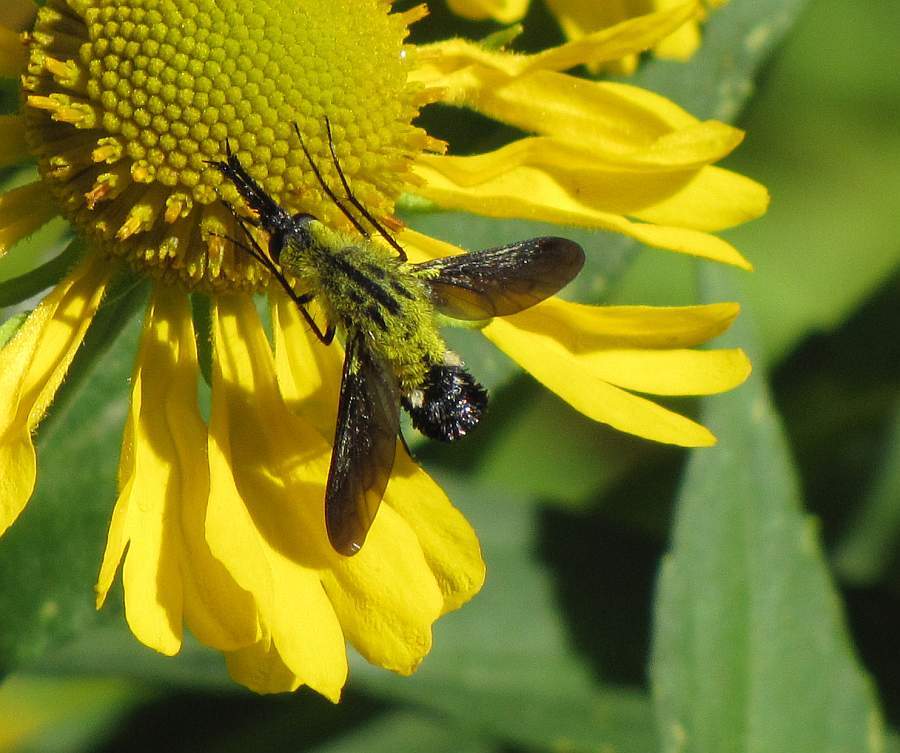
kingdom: Animalia
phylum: Arthropoda
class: Insecta
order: Diptera
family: Bombyliidae
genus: Lepidophora
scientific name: Lepidophora lutea
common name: Hunchback bee fly
